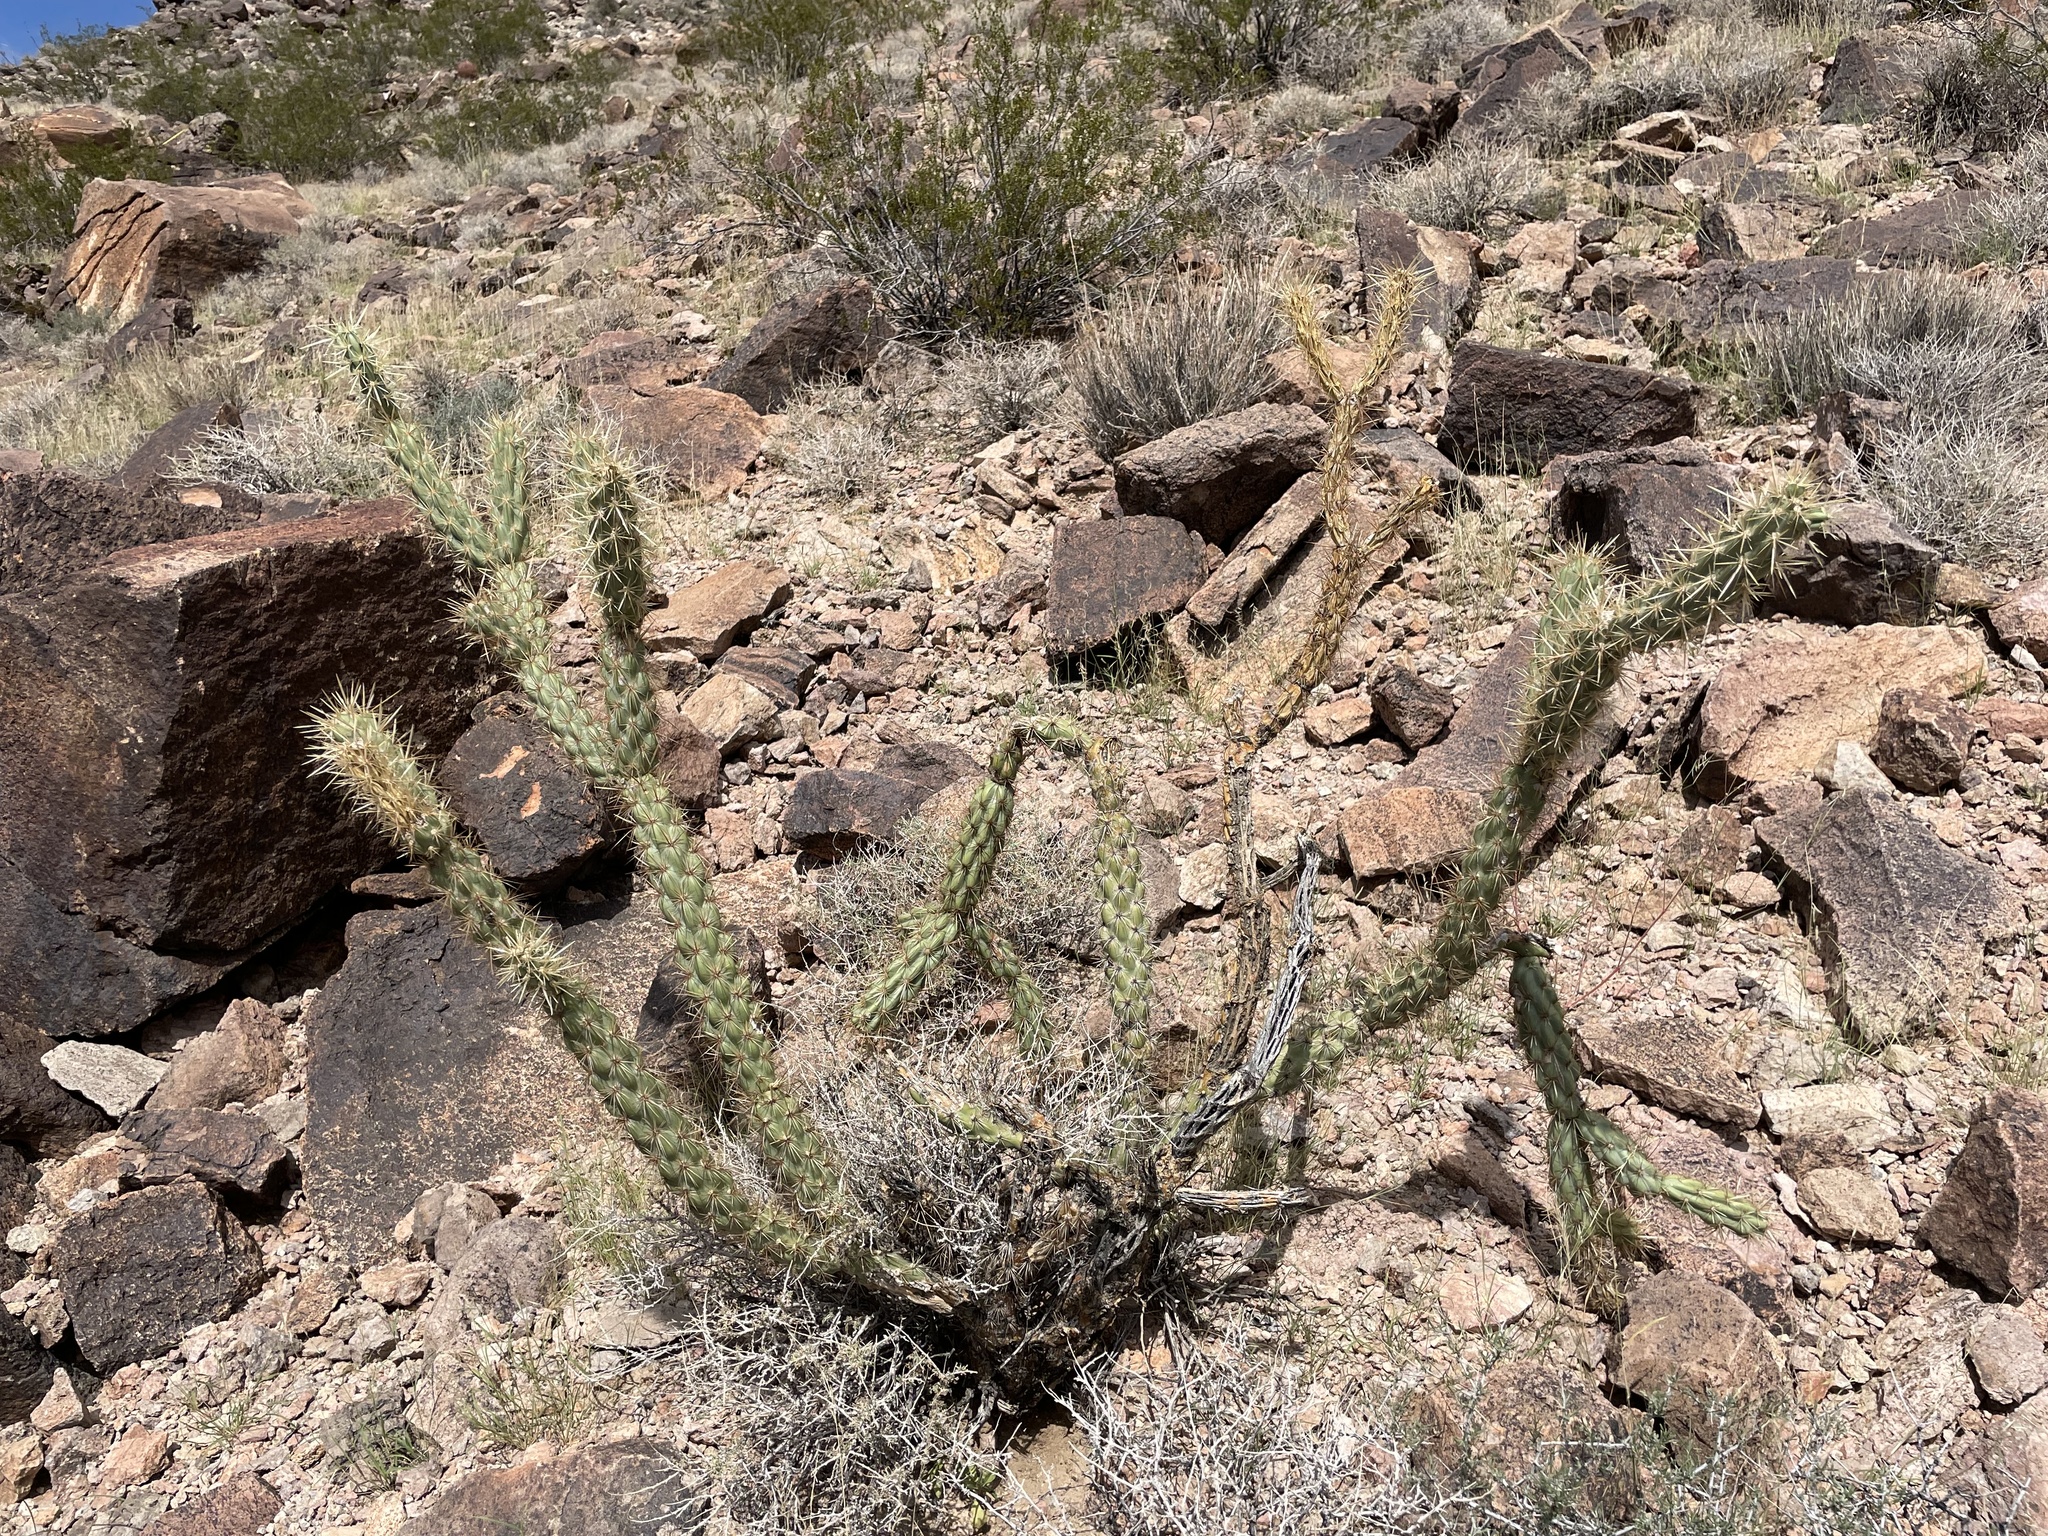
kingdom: Plantae
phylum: Tracheophyta
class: Magnoliopsida
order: Caryophyllales
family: Cactaceae
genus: Cylindropuntia
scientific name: Cylindropuntia acanthocarpa
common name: Buckhorn cholla
